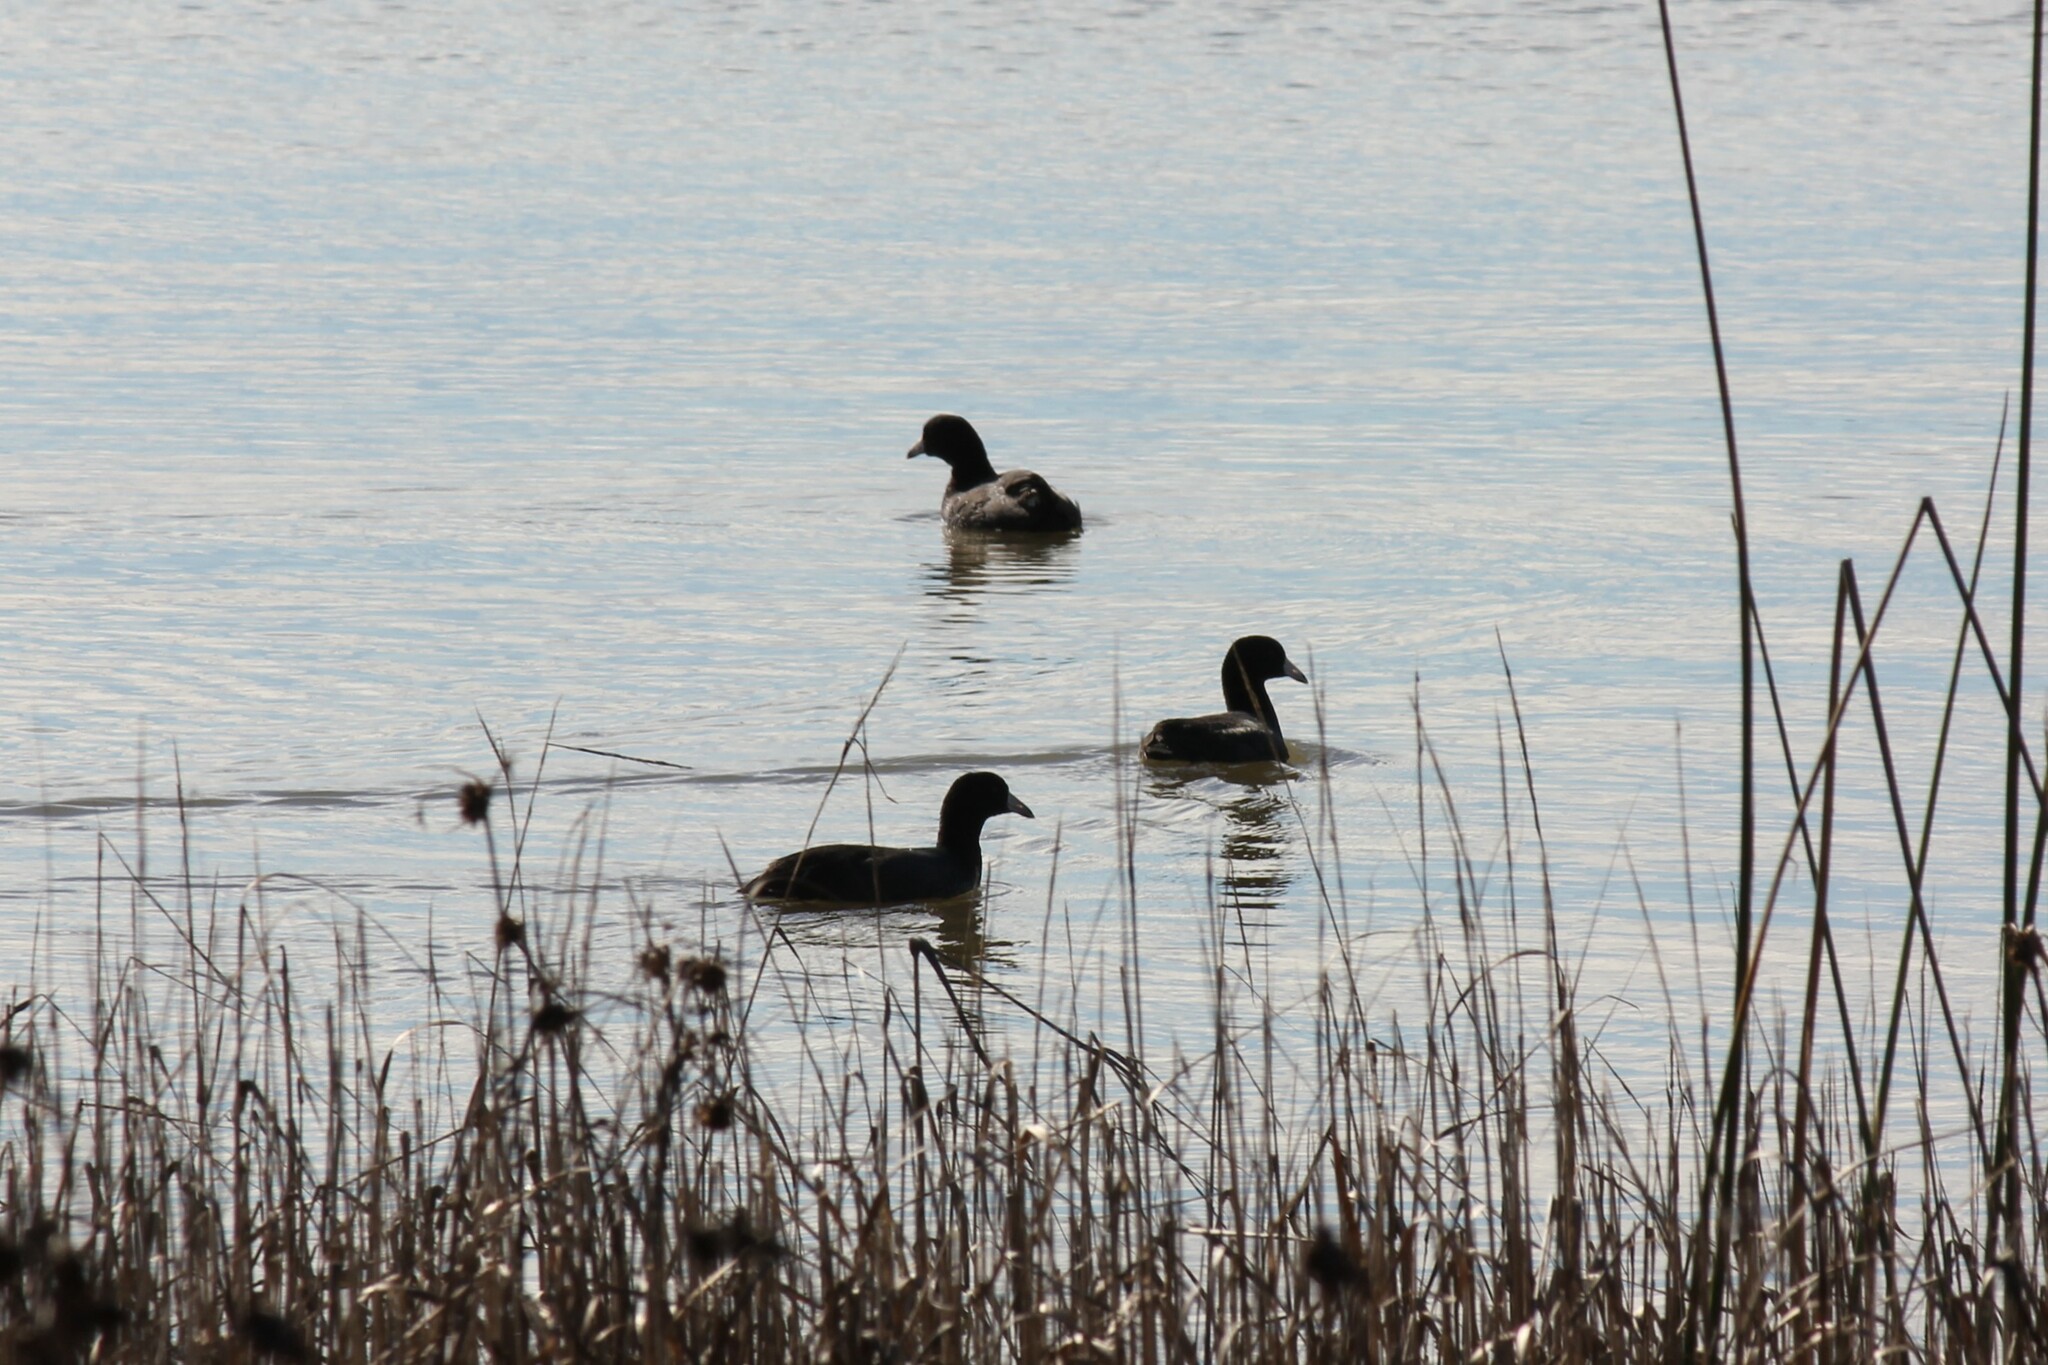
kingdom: Animalia
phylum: Chordata
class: Aves
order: Gruiformes
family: Rallidae
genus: Fulica
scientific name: Fulica americana
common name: American coot
